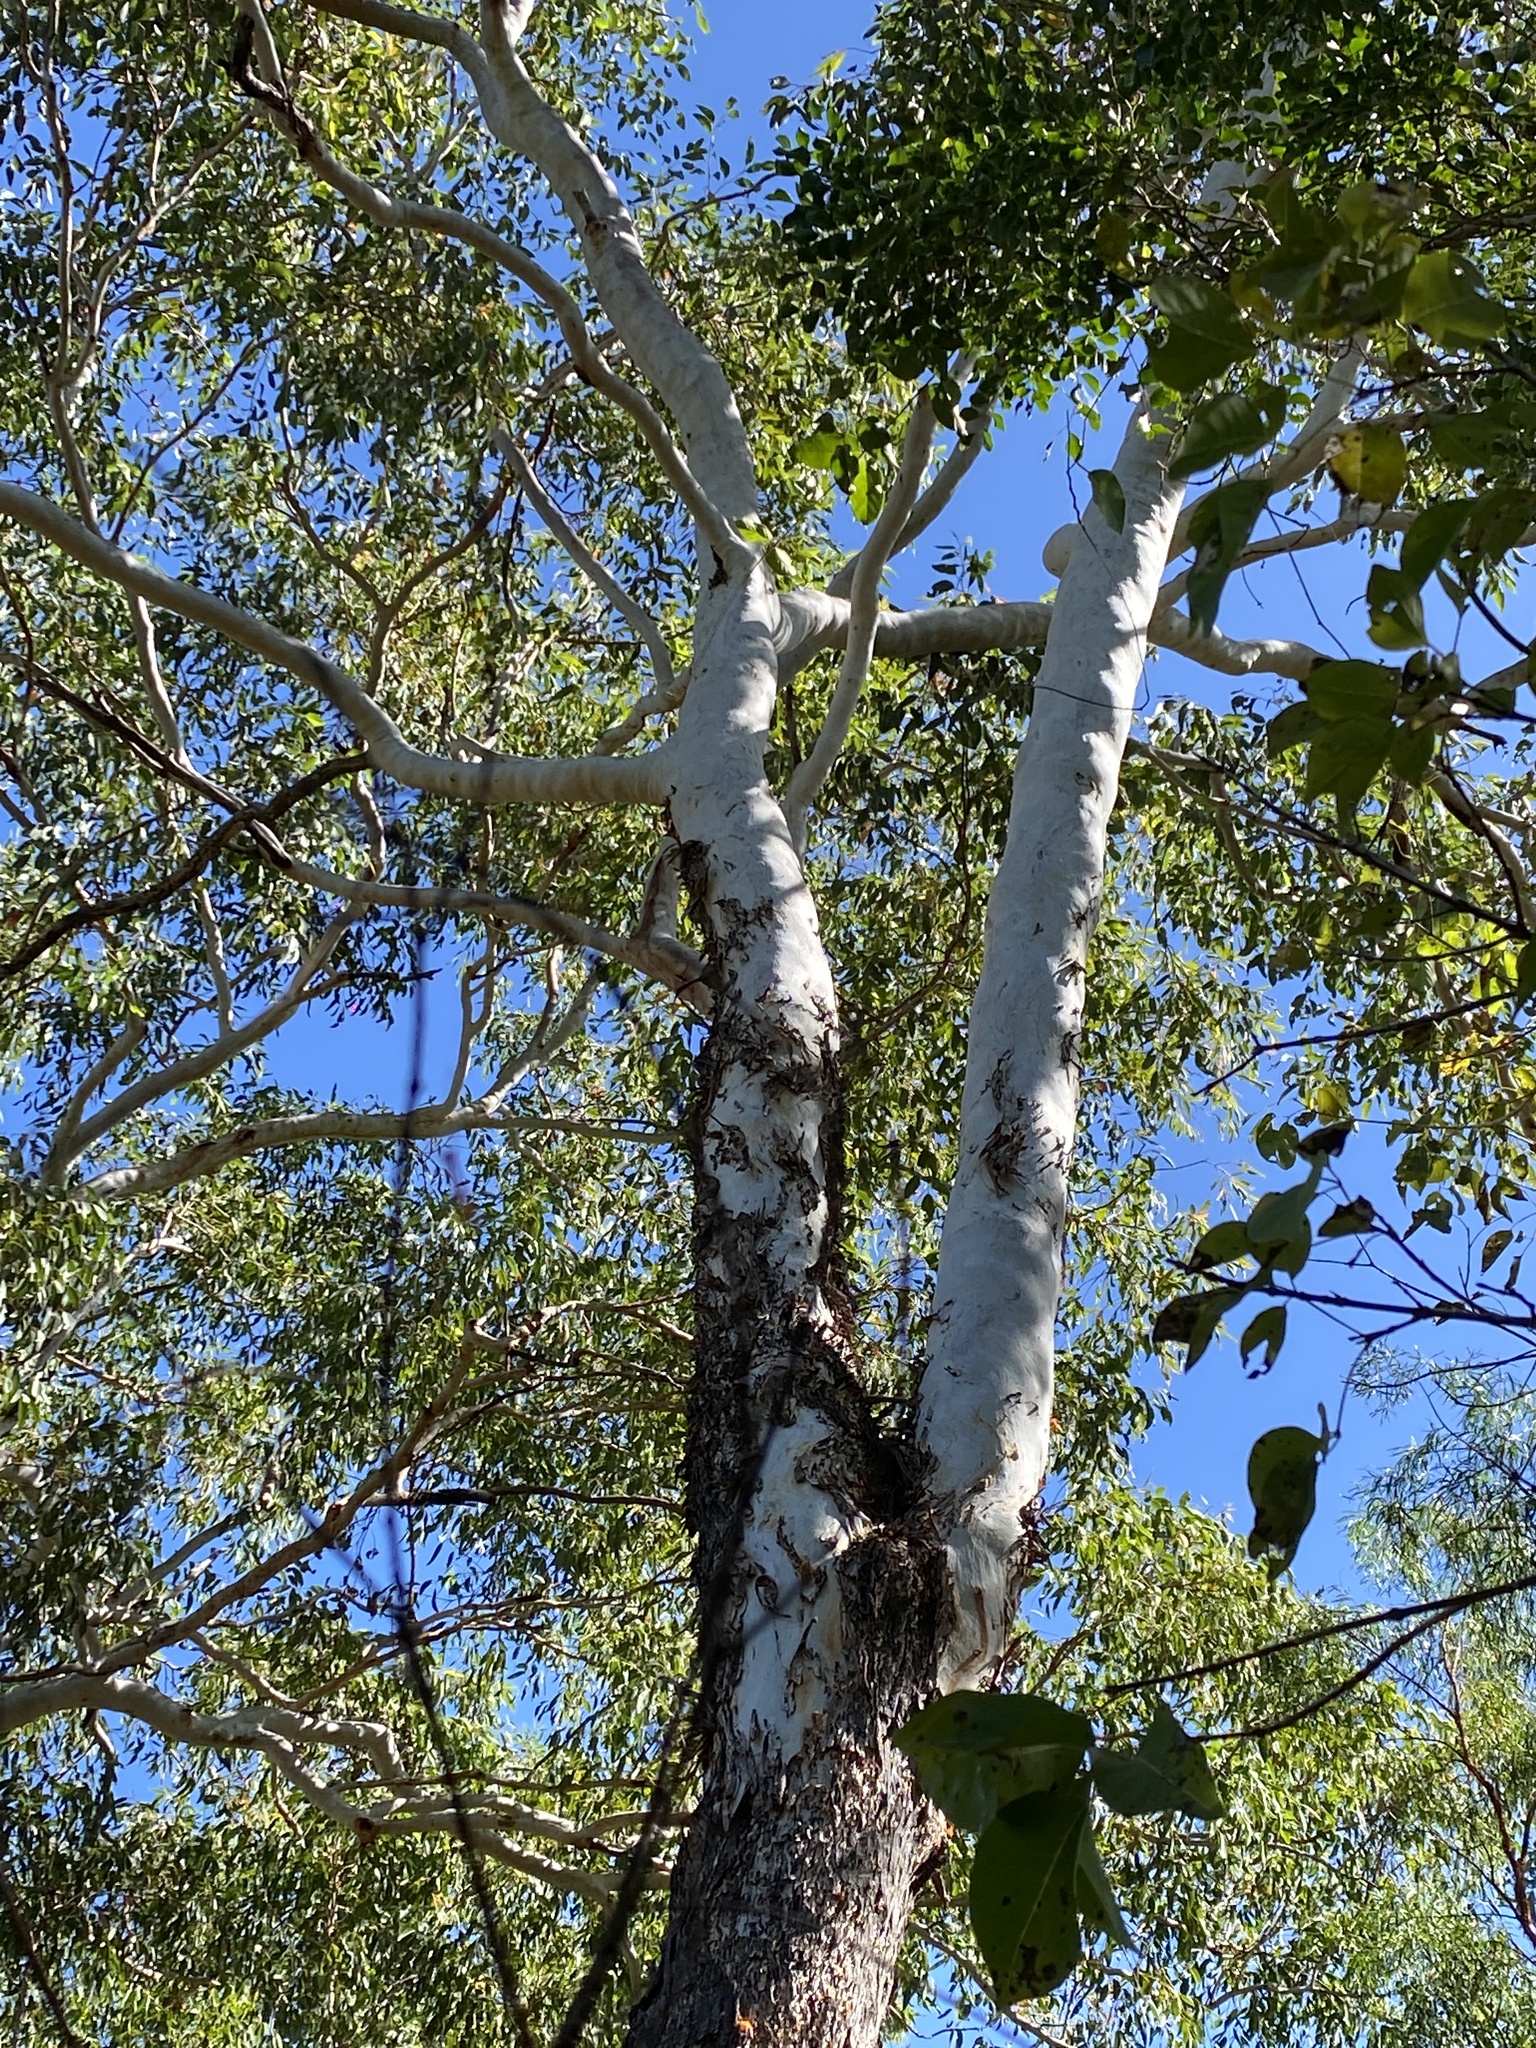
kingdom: Plantae
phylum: Tracheophyta
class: Magnoliopsida
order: Myrtales
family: Myrtaceae
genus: Eucalyptus
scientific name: Eucalyptus miniata
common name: Darwin-woollybutt
